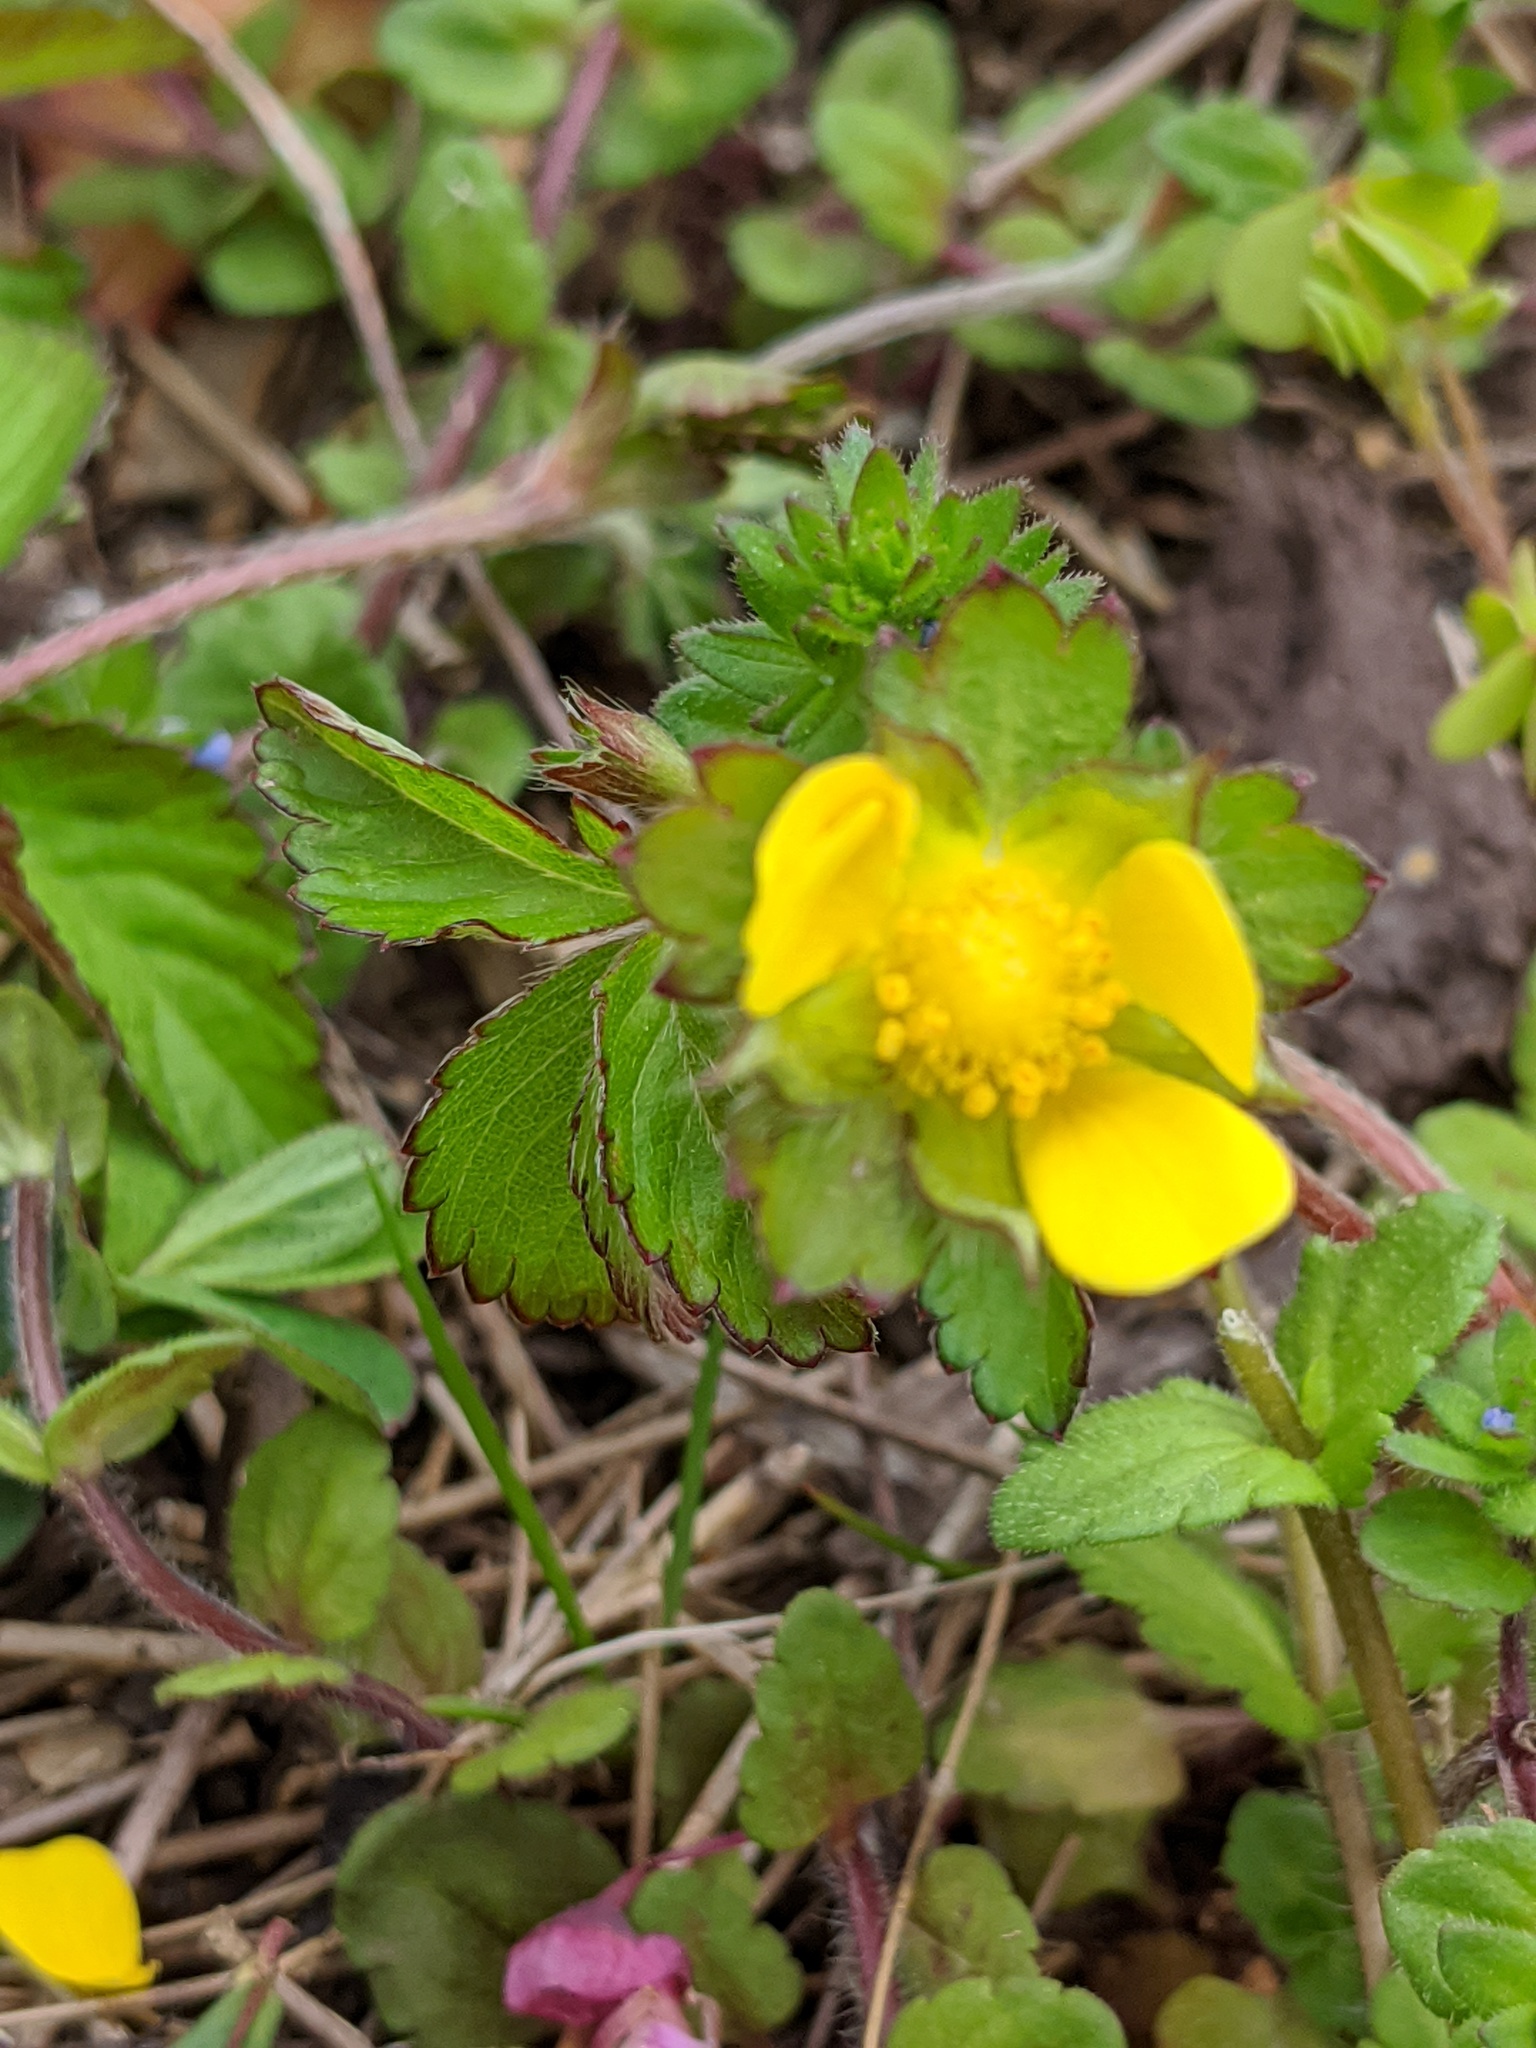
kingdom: Plantae
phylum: Tracheophyta
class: Magnoliopsida
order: Rosales
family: Rosaceae
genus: Potentilla
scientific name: Potentilla indica
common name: Yellow-flowered strawberry
